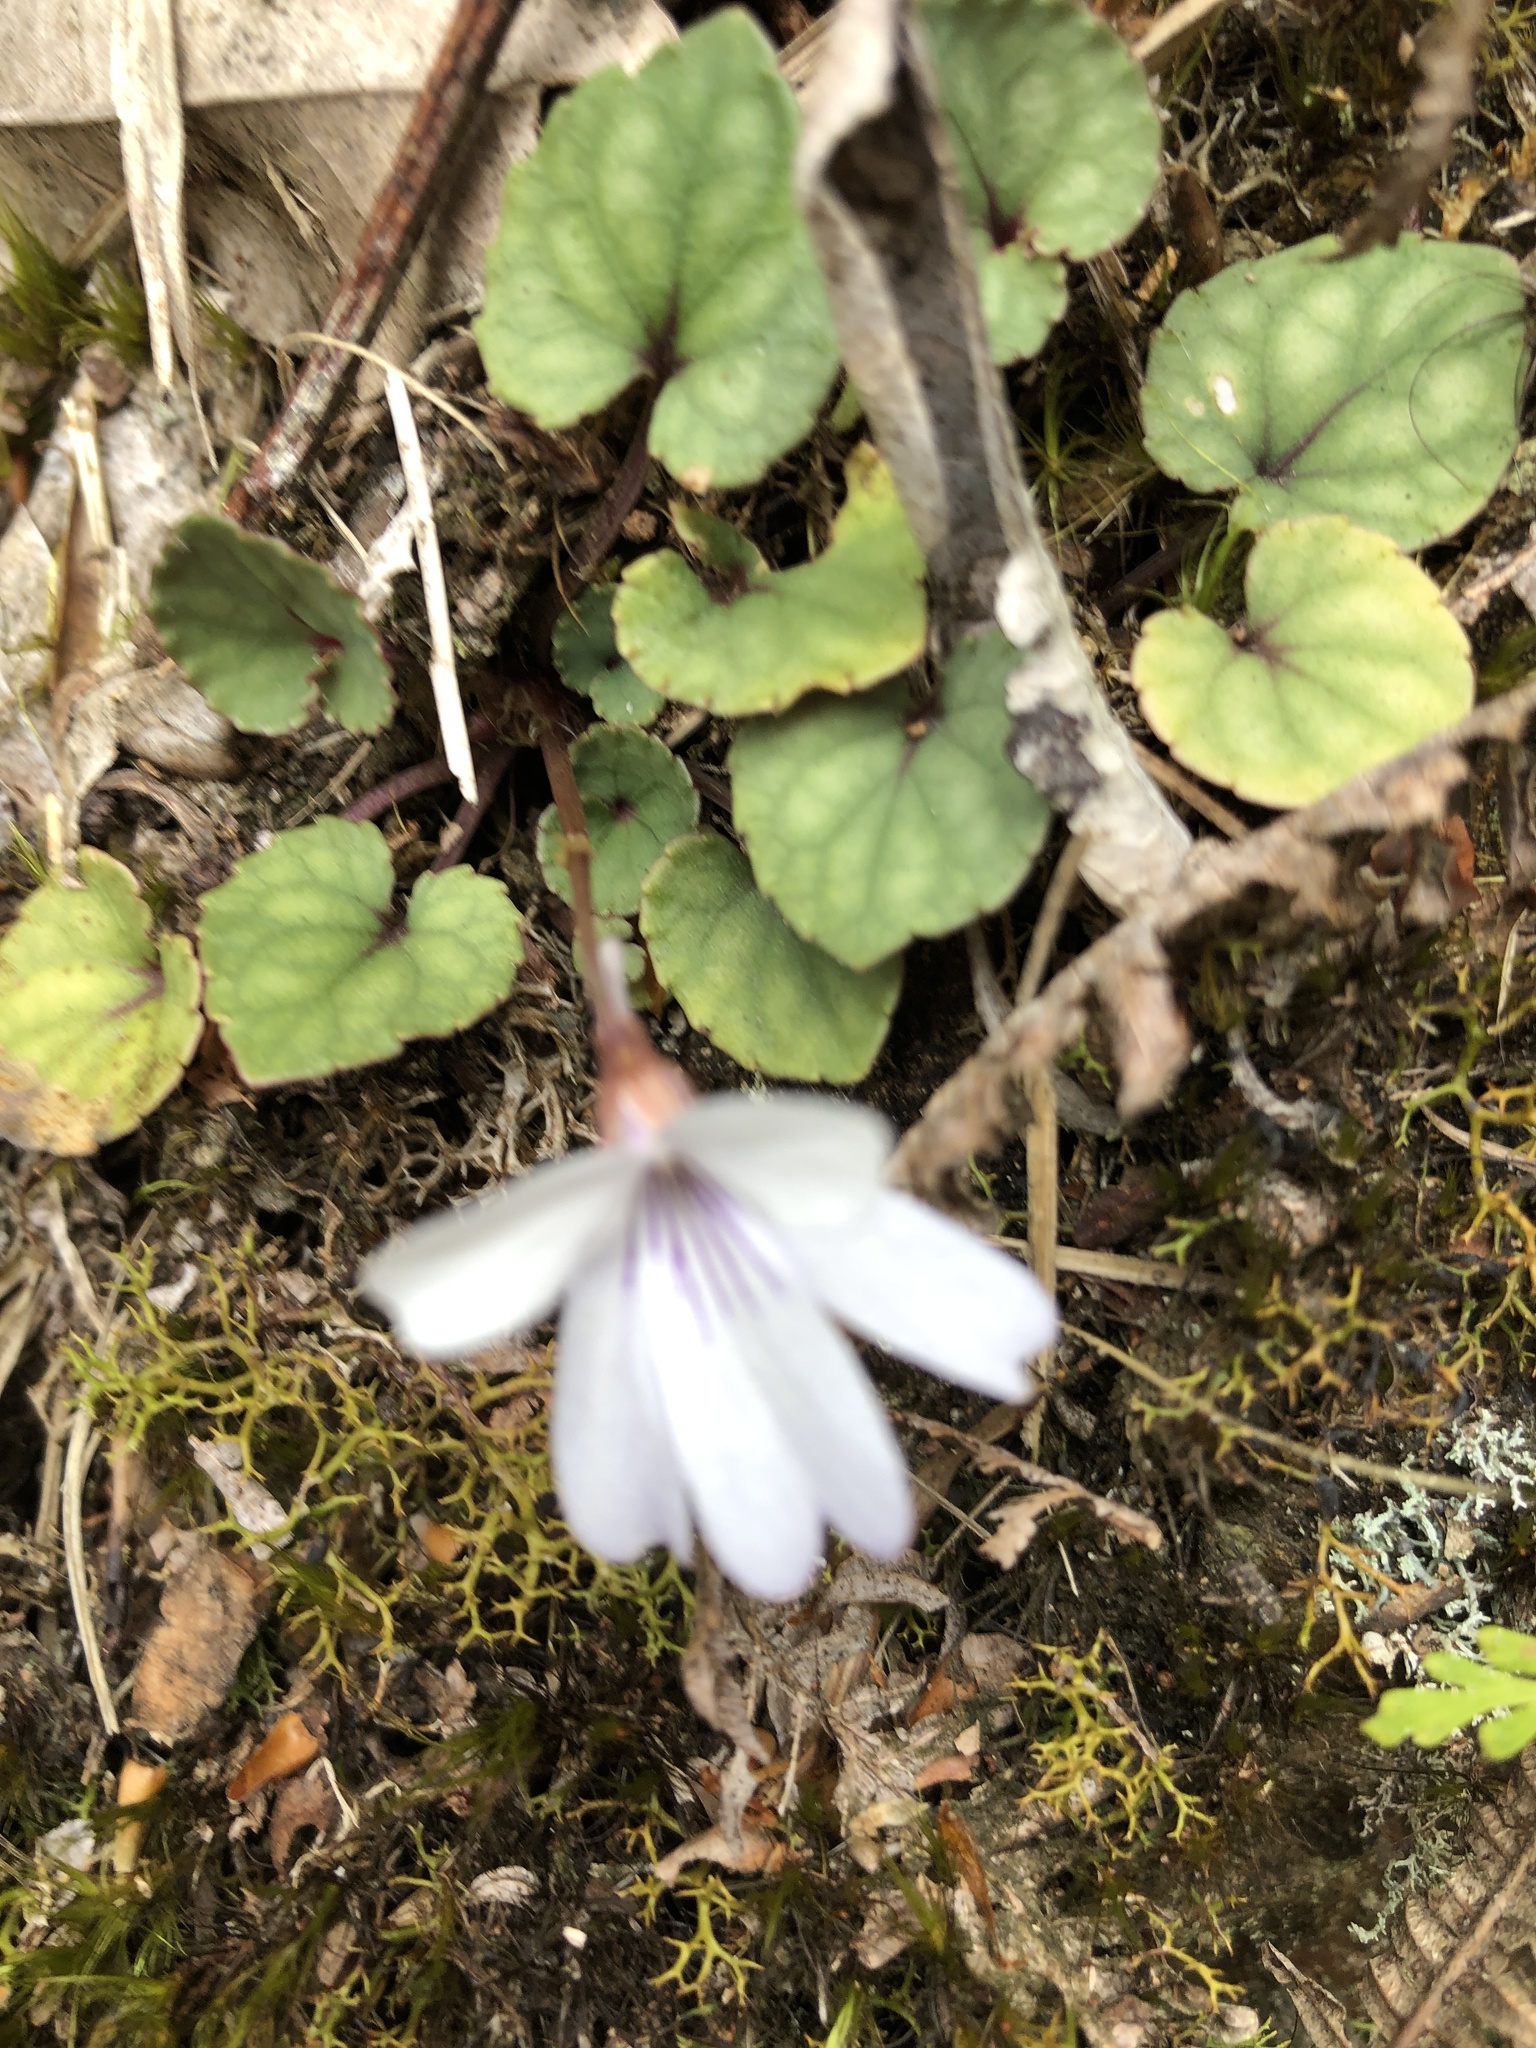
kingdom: Plantae
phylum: Tracheophyta
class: Magnoliopsida
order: Malpighiales
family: Violaceae
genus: Viola
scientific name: Viola formosana
